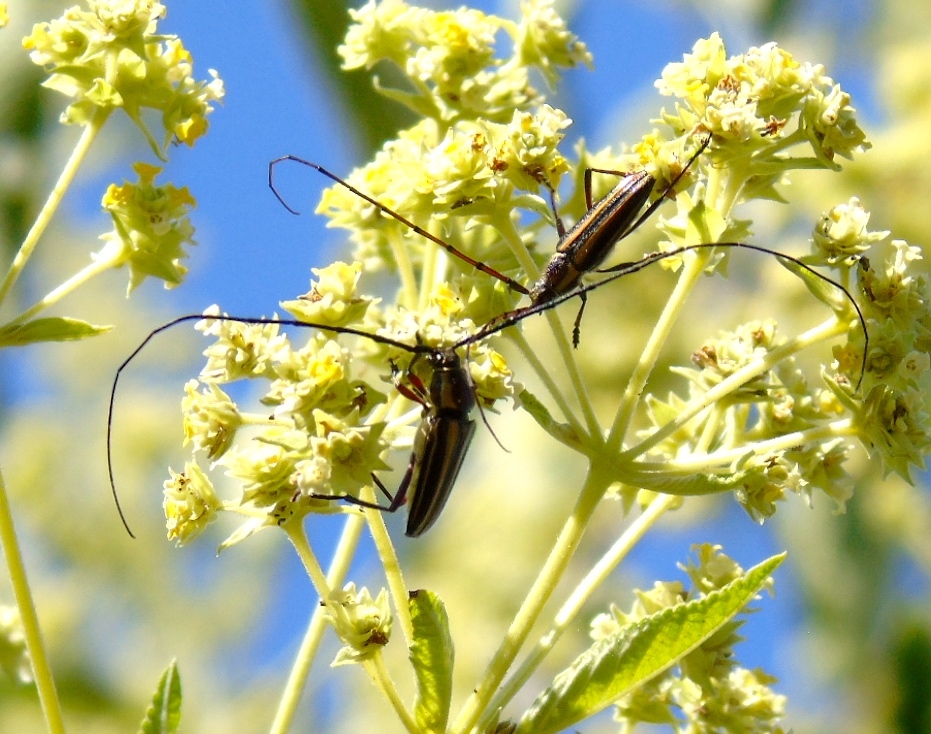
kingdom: Animalia
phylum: Arthropoda
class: Insecta
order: Coleoptera
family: Cerambycidae
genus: Sphaenothecus
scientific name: Sphaenothecus picticornis
